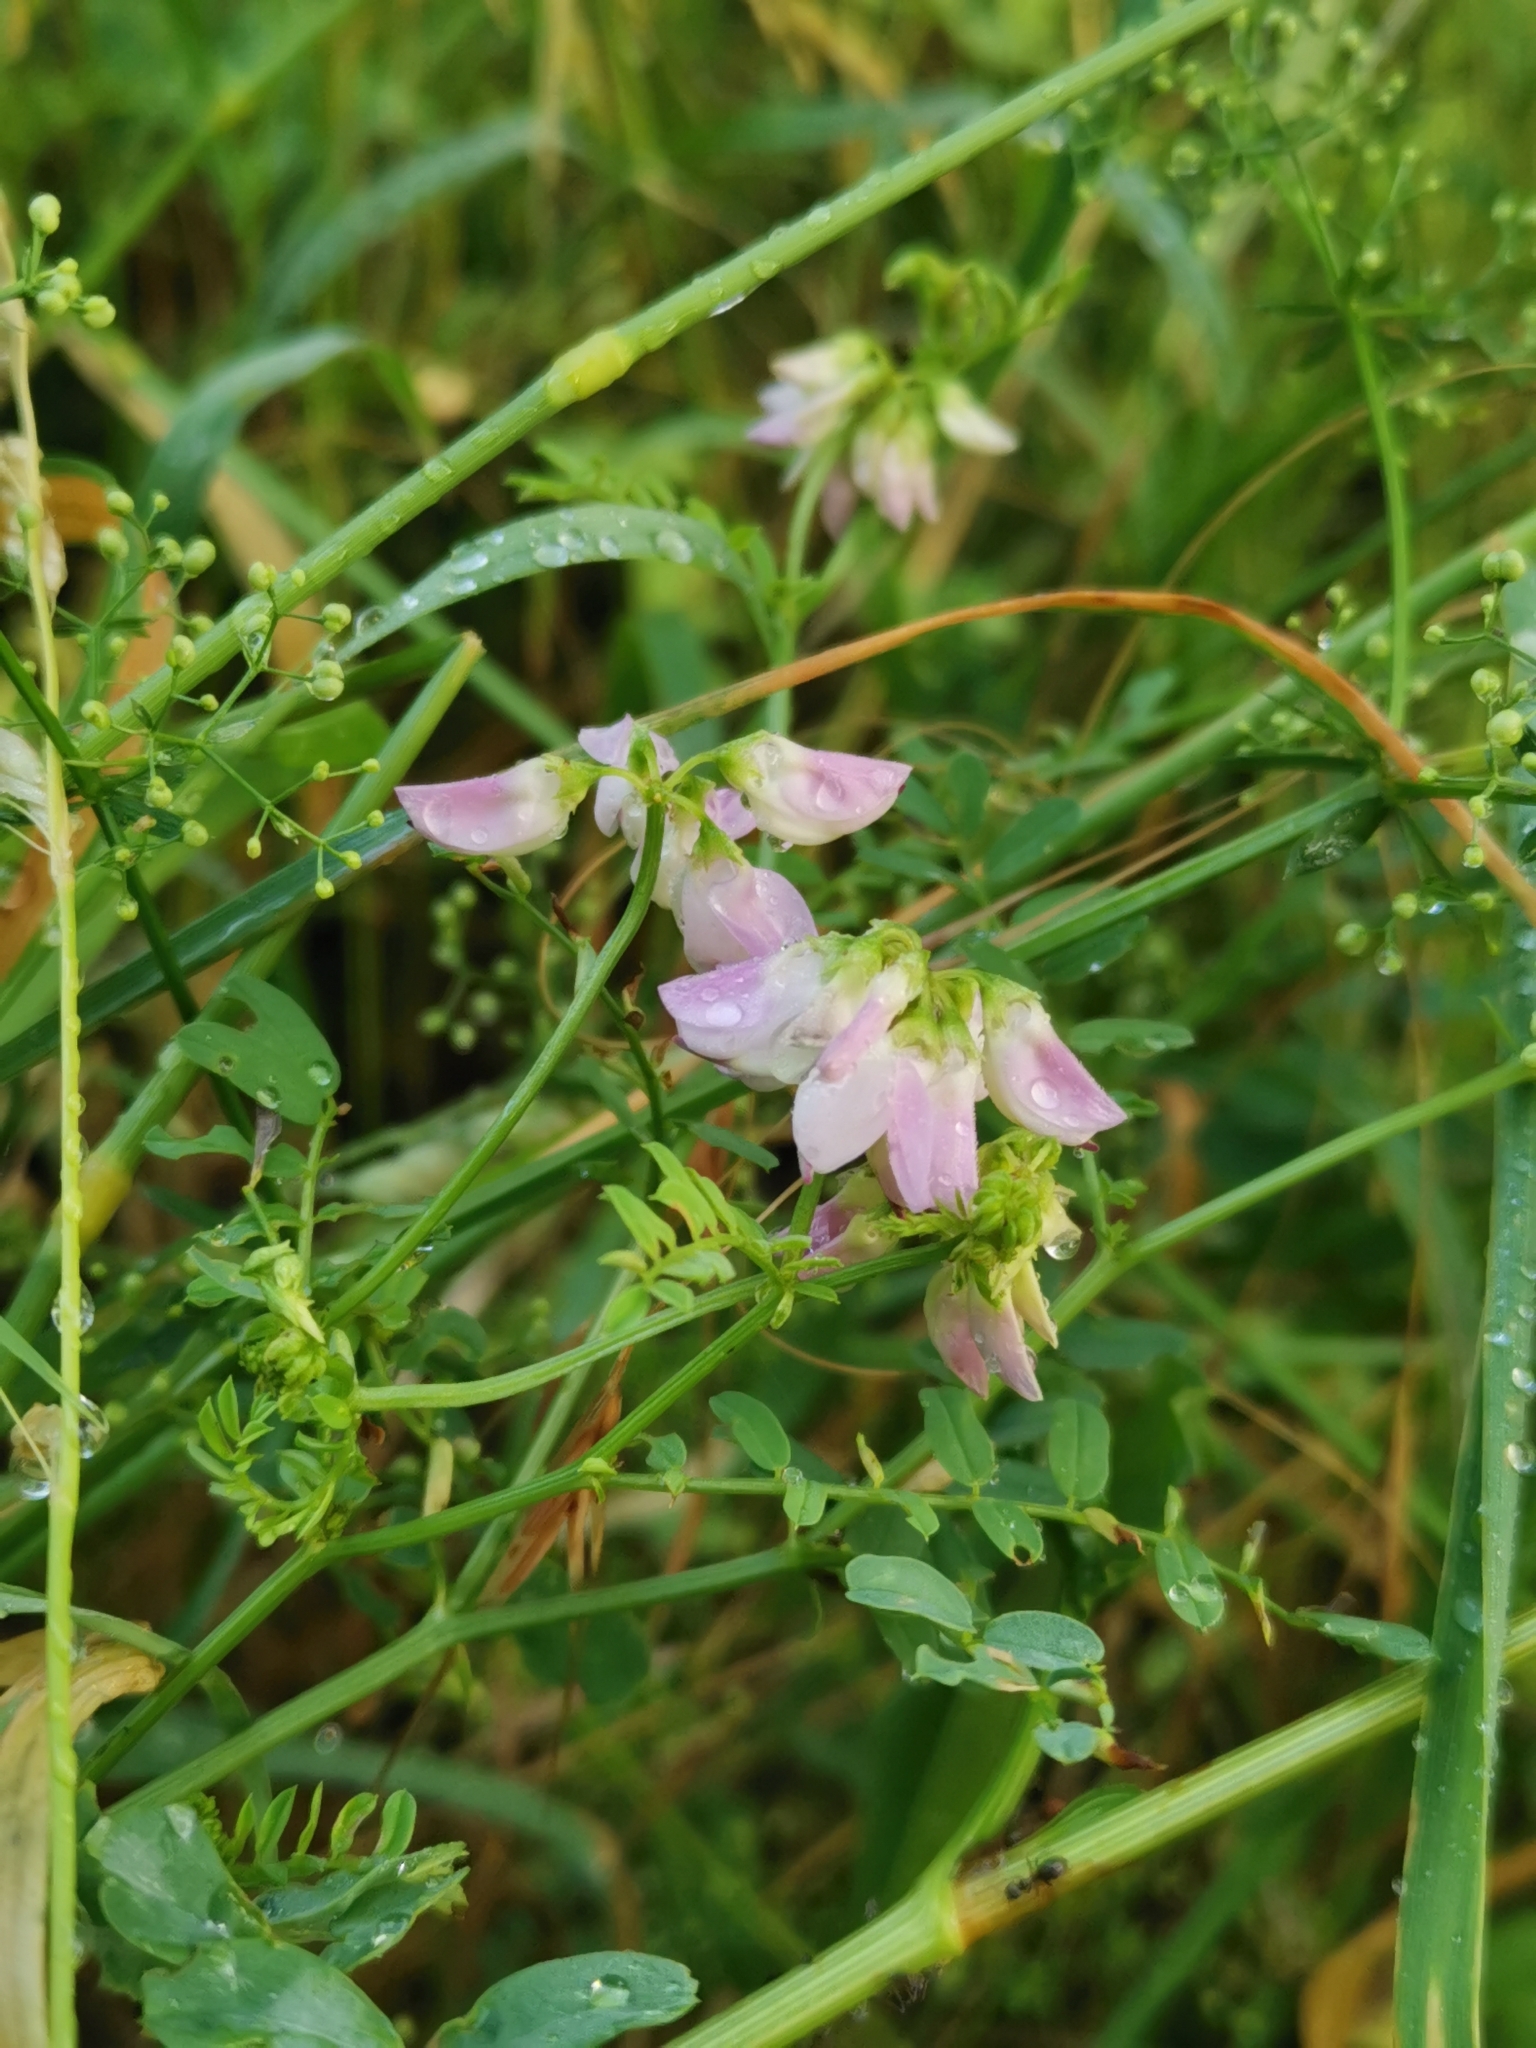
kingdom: Plantae
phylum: Tracheophyta
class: Magnoliopsida
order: Fabales
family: Fabaceae
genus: Coronilla
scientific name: Coronilla varia
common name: Crownvetch
